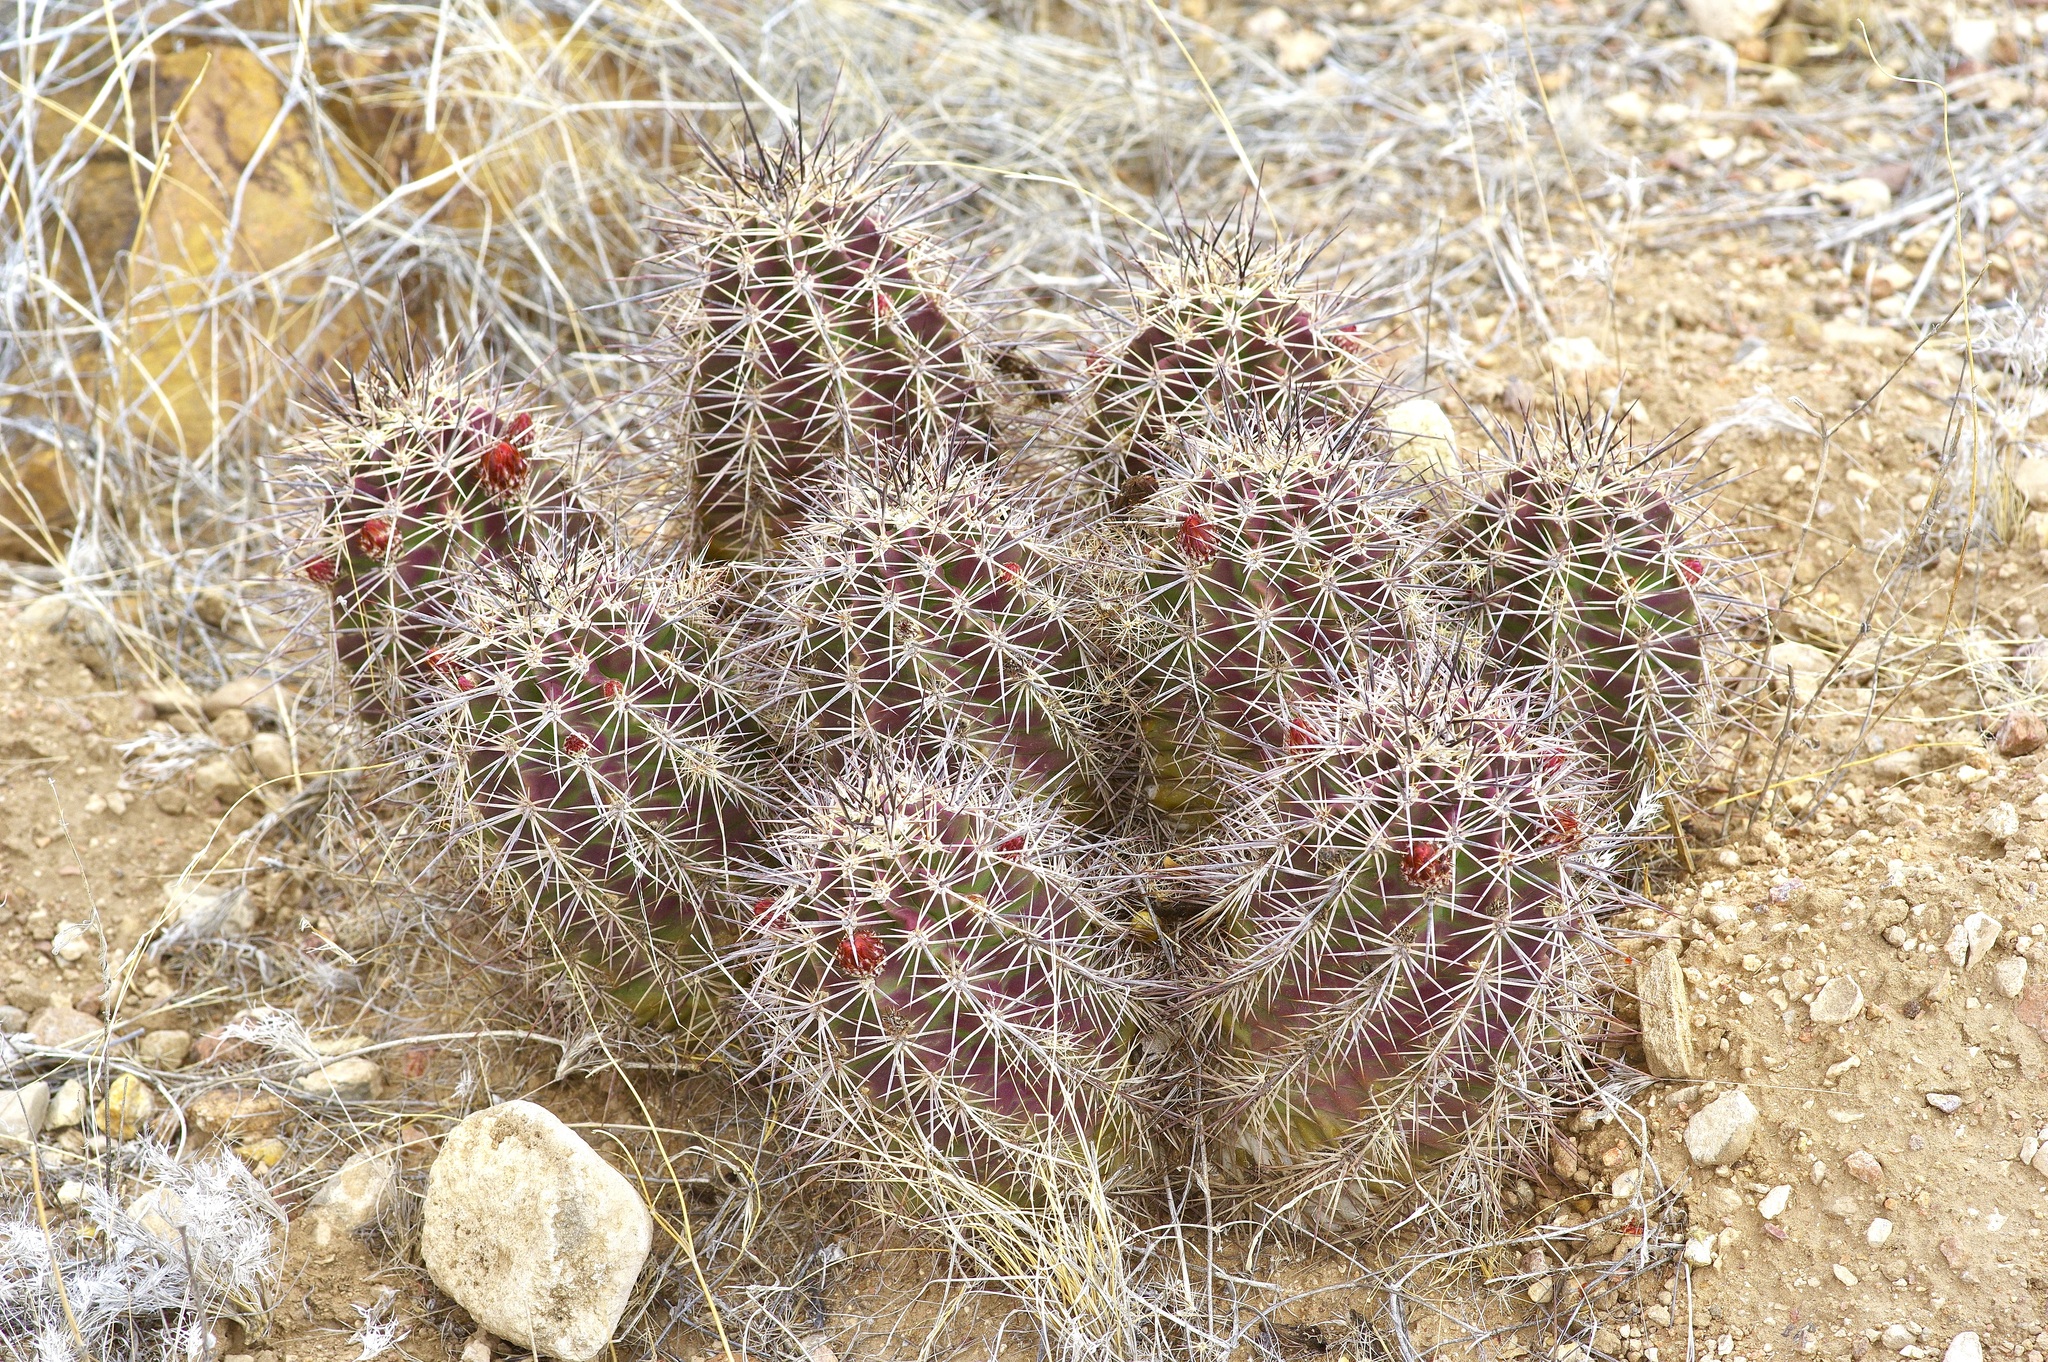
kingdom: Plantae
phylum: Tracheophyta
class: Magnoliopsida
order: Caryophyllales
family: Cactaceae
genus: Echinocereus
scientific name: Echinocereus coccineus
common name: Scarlet hedgehog cactus
